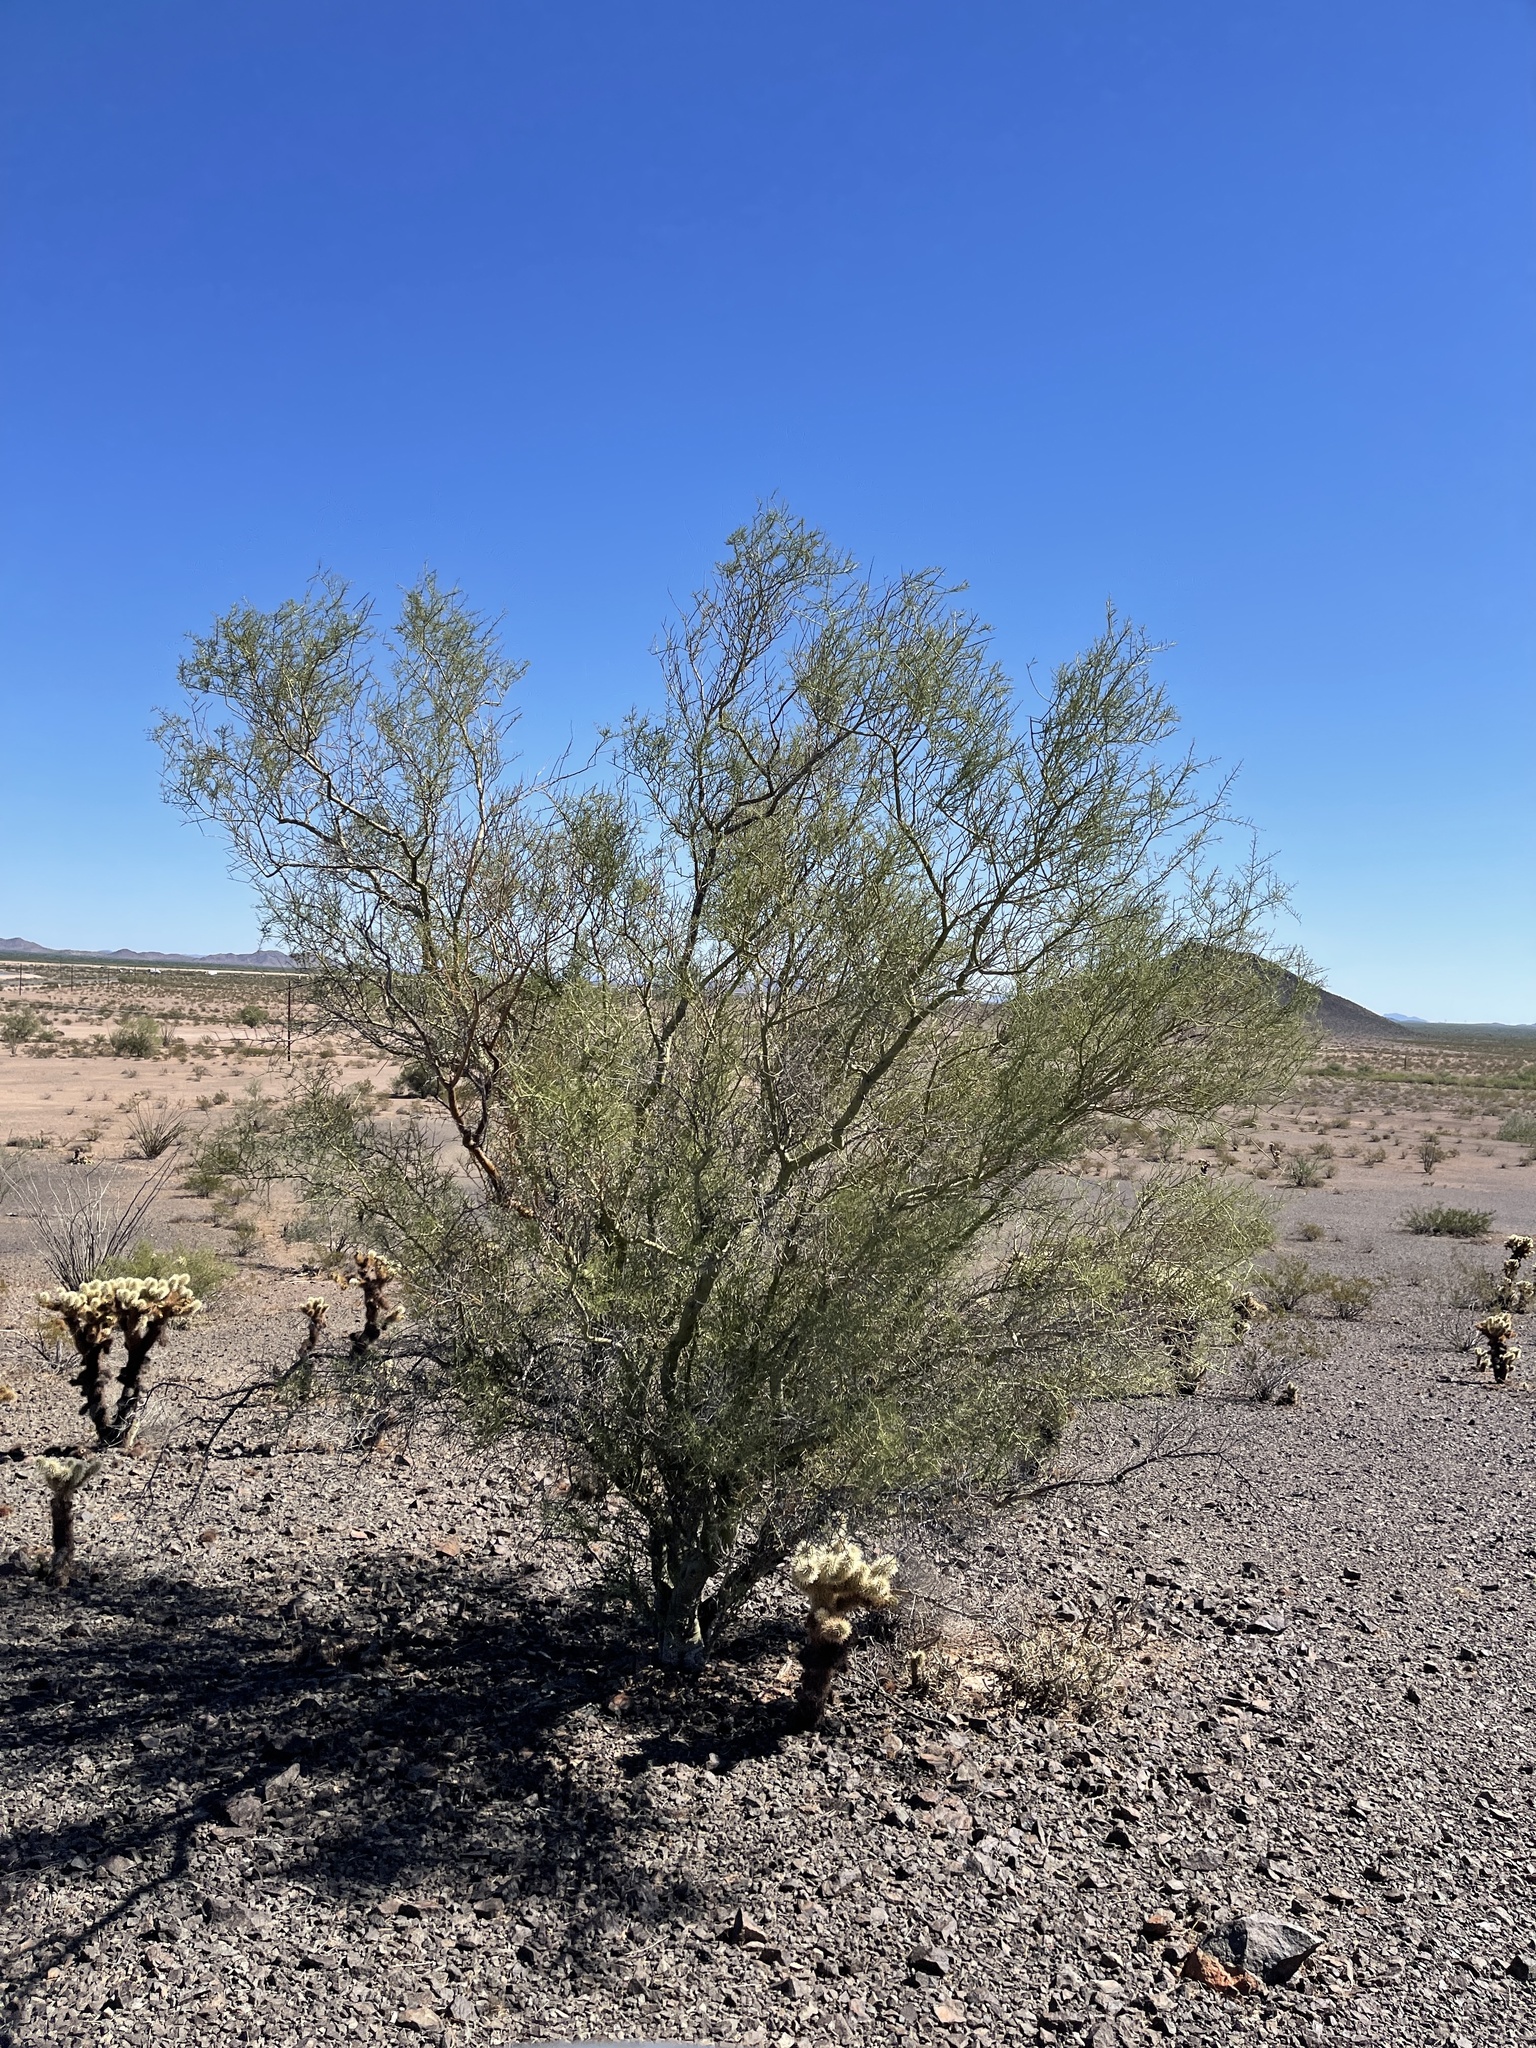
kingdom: Plantae
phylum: Tracheophyta
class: Magnoliopsida
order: Fabales
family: Fabaceae
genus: Parkinsonia
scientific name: Parkinsonia microphylla
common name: Yellow paloverde
